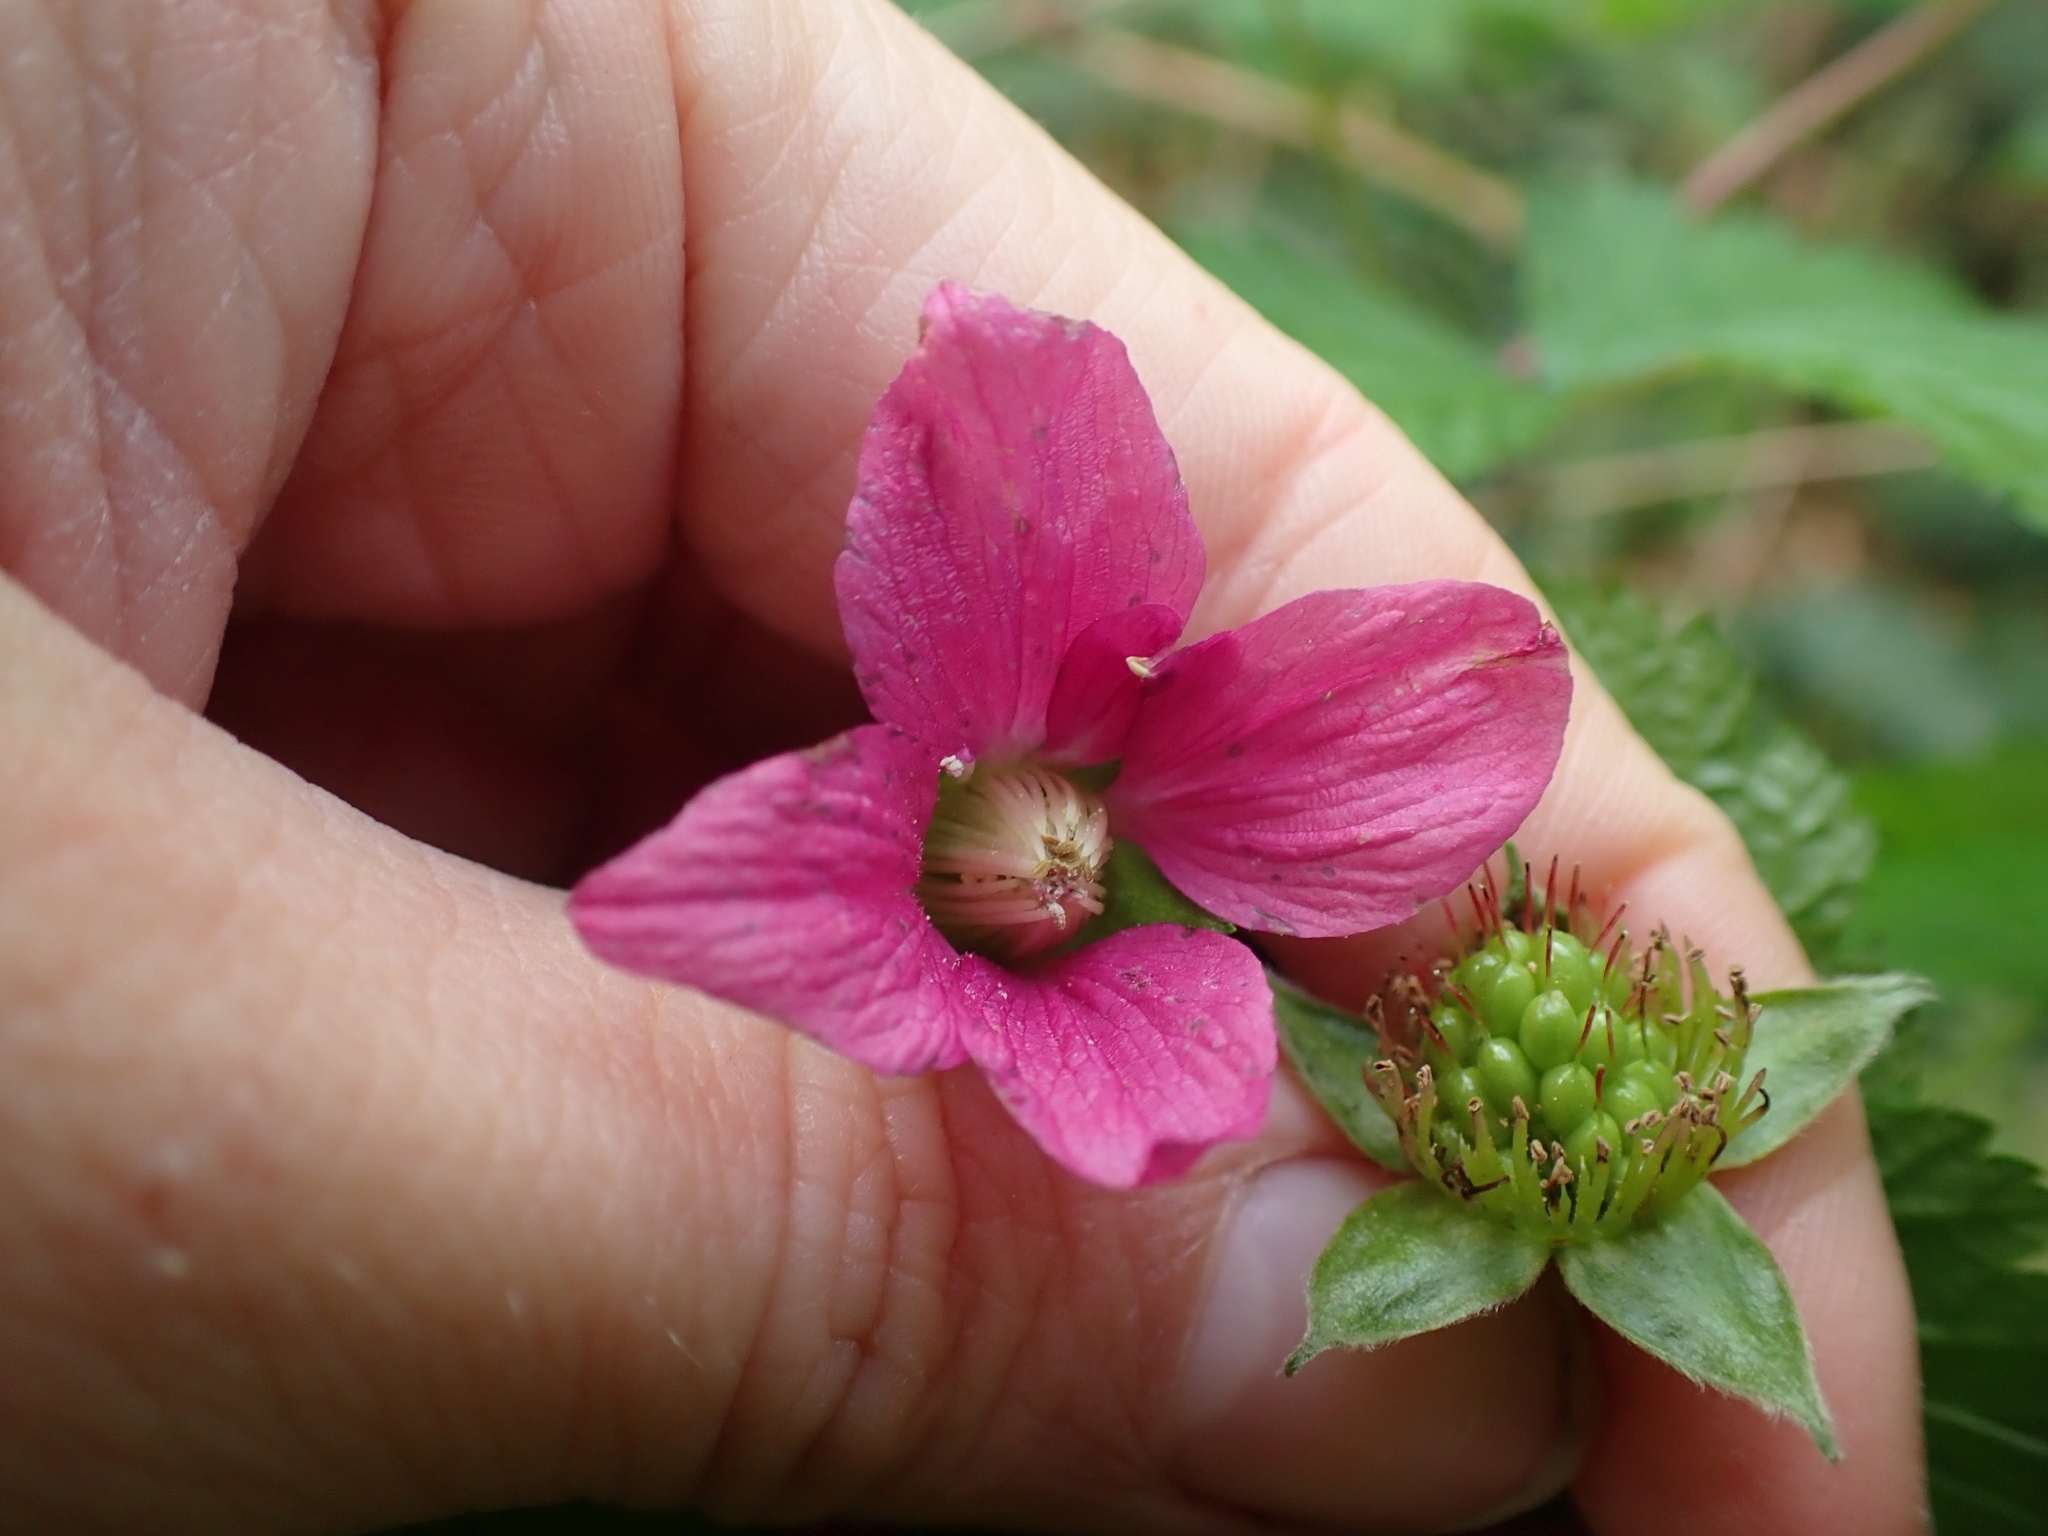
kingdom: Plantae
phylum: Tracheophyta
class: Magnoliopsida
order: Rosales
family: Rosaceae
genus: Rubus
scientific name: Rubus spectabilis
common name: Salmonberry
